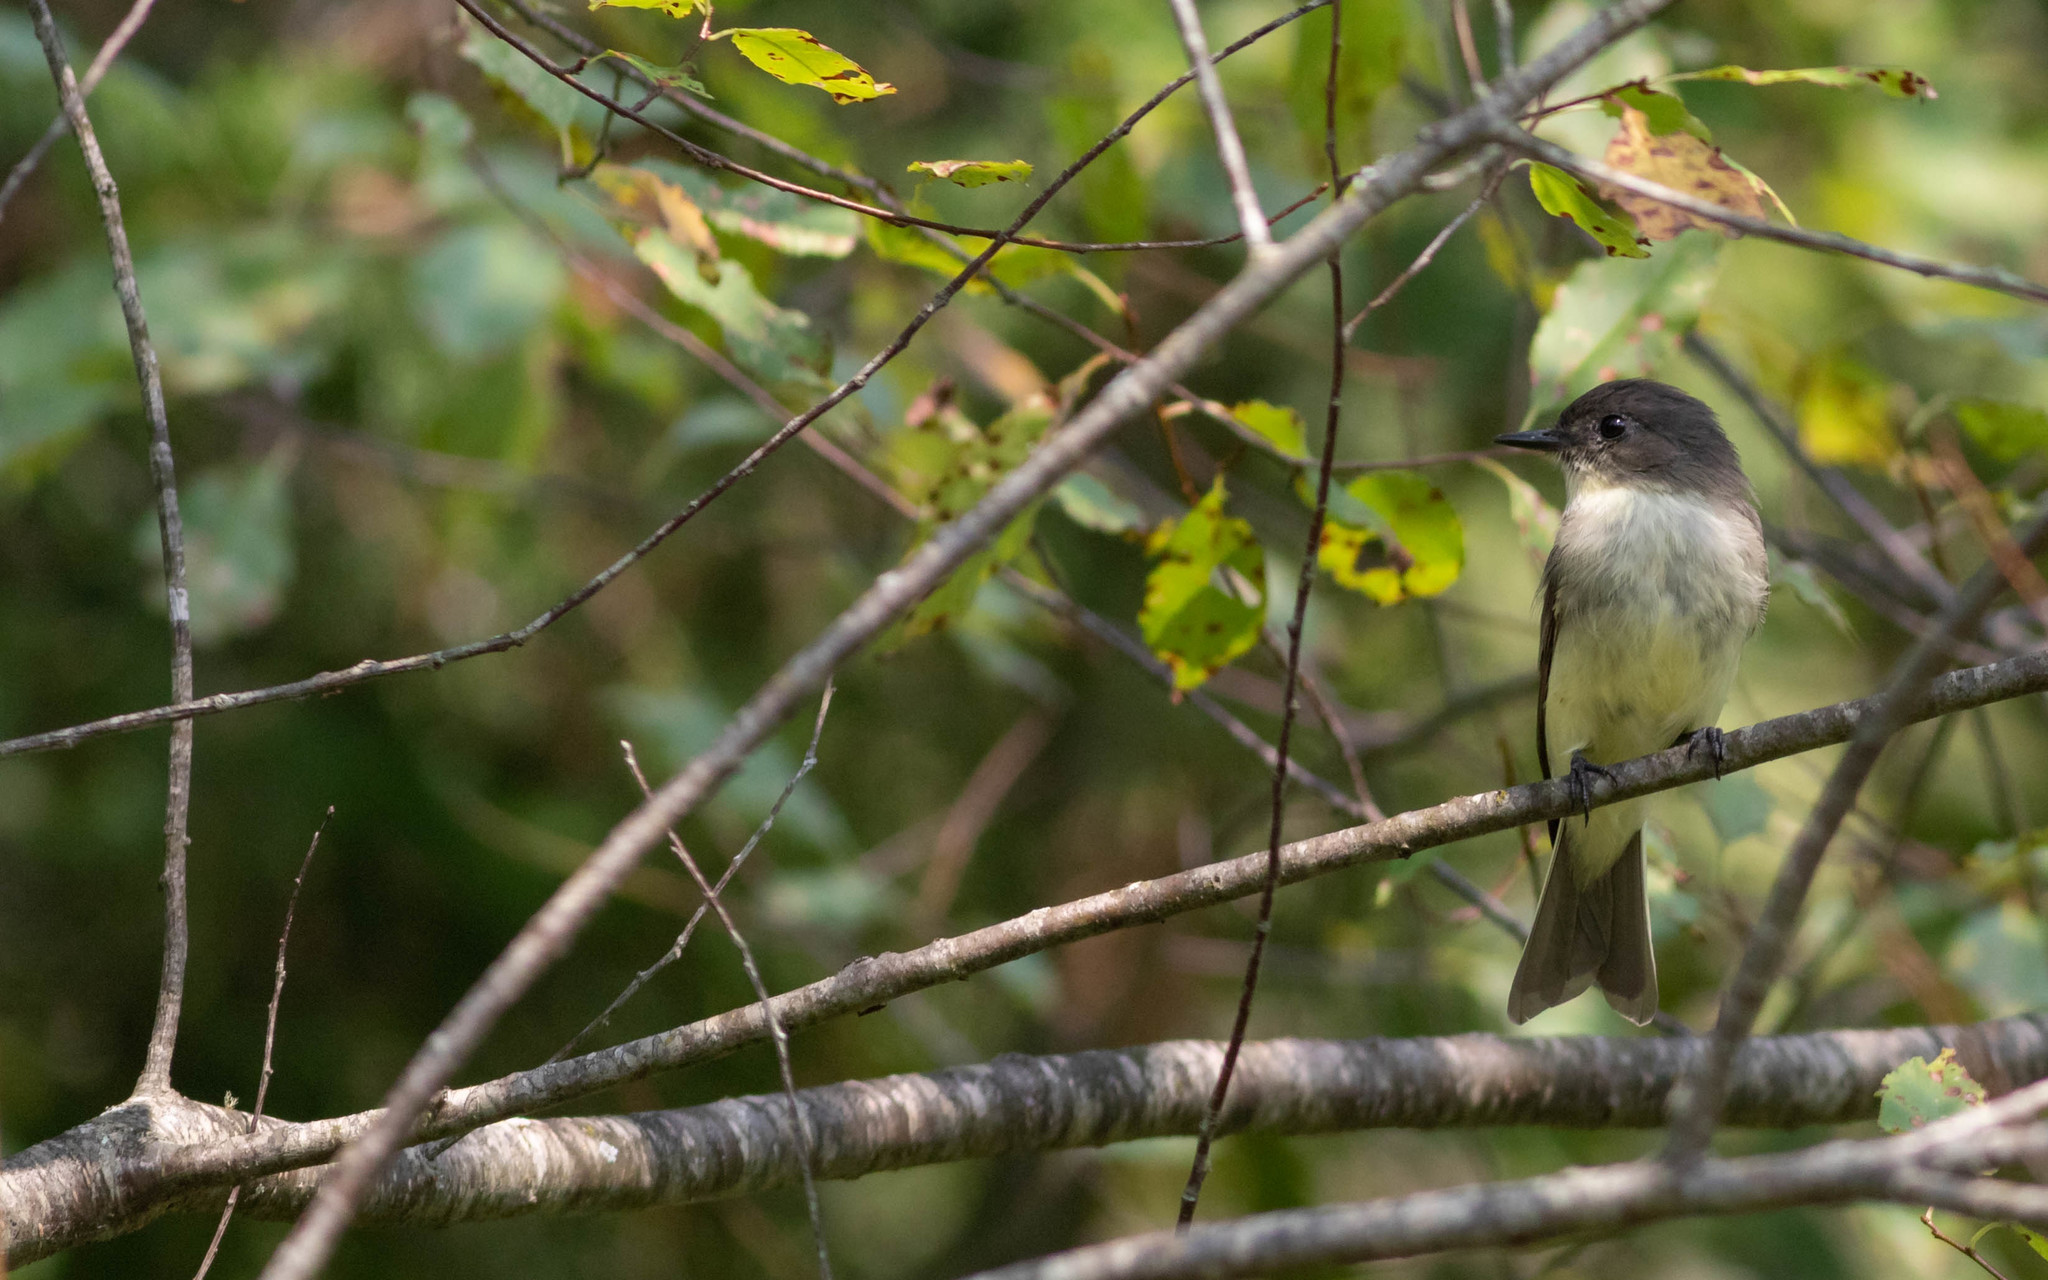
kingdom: Animalia
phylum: Chordata
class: Aves
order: Passeriformes
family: Tyrannidae
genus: Contopus
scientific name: Contopus virens
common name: Eastern wood-pewee
